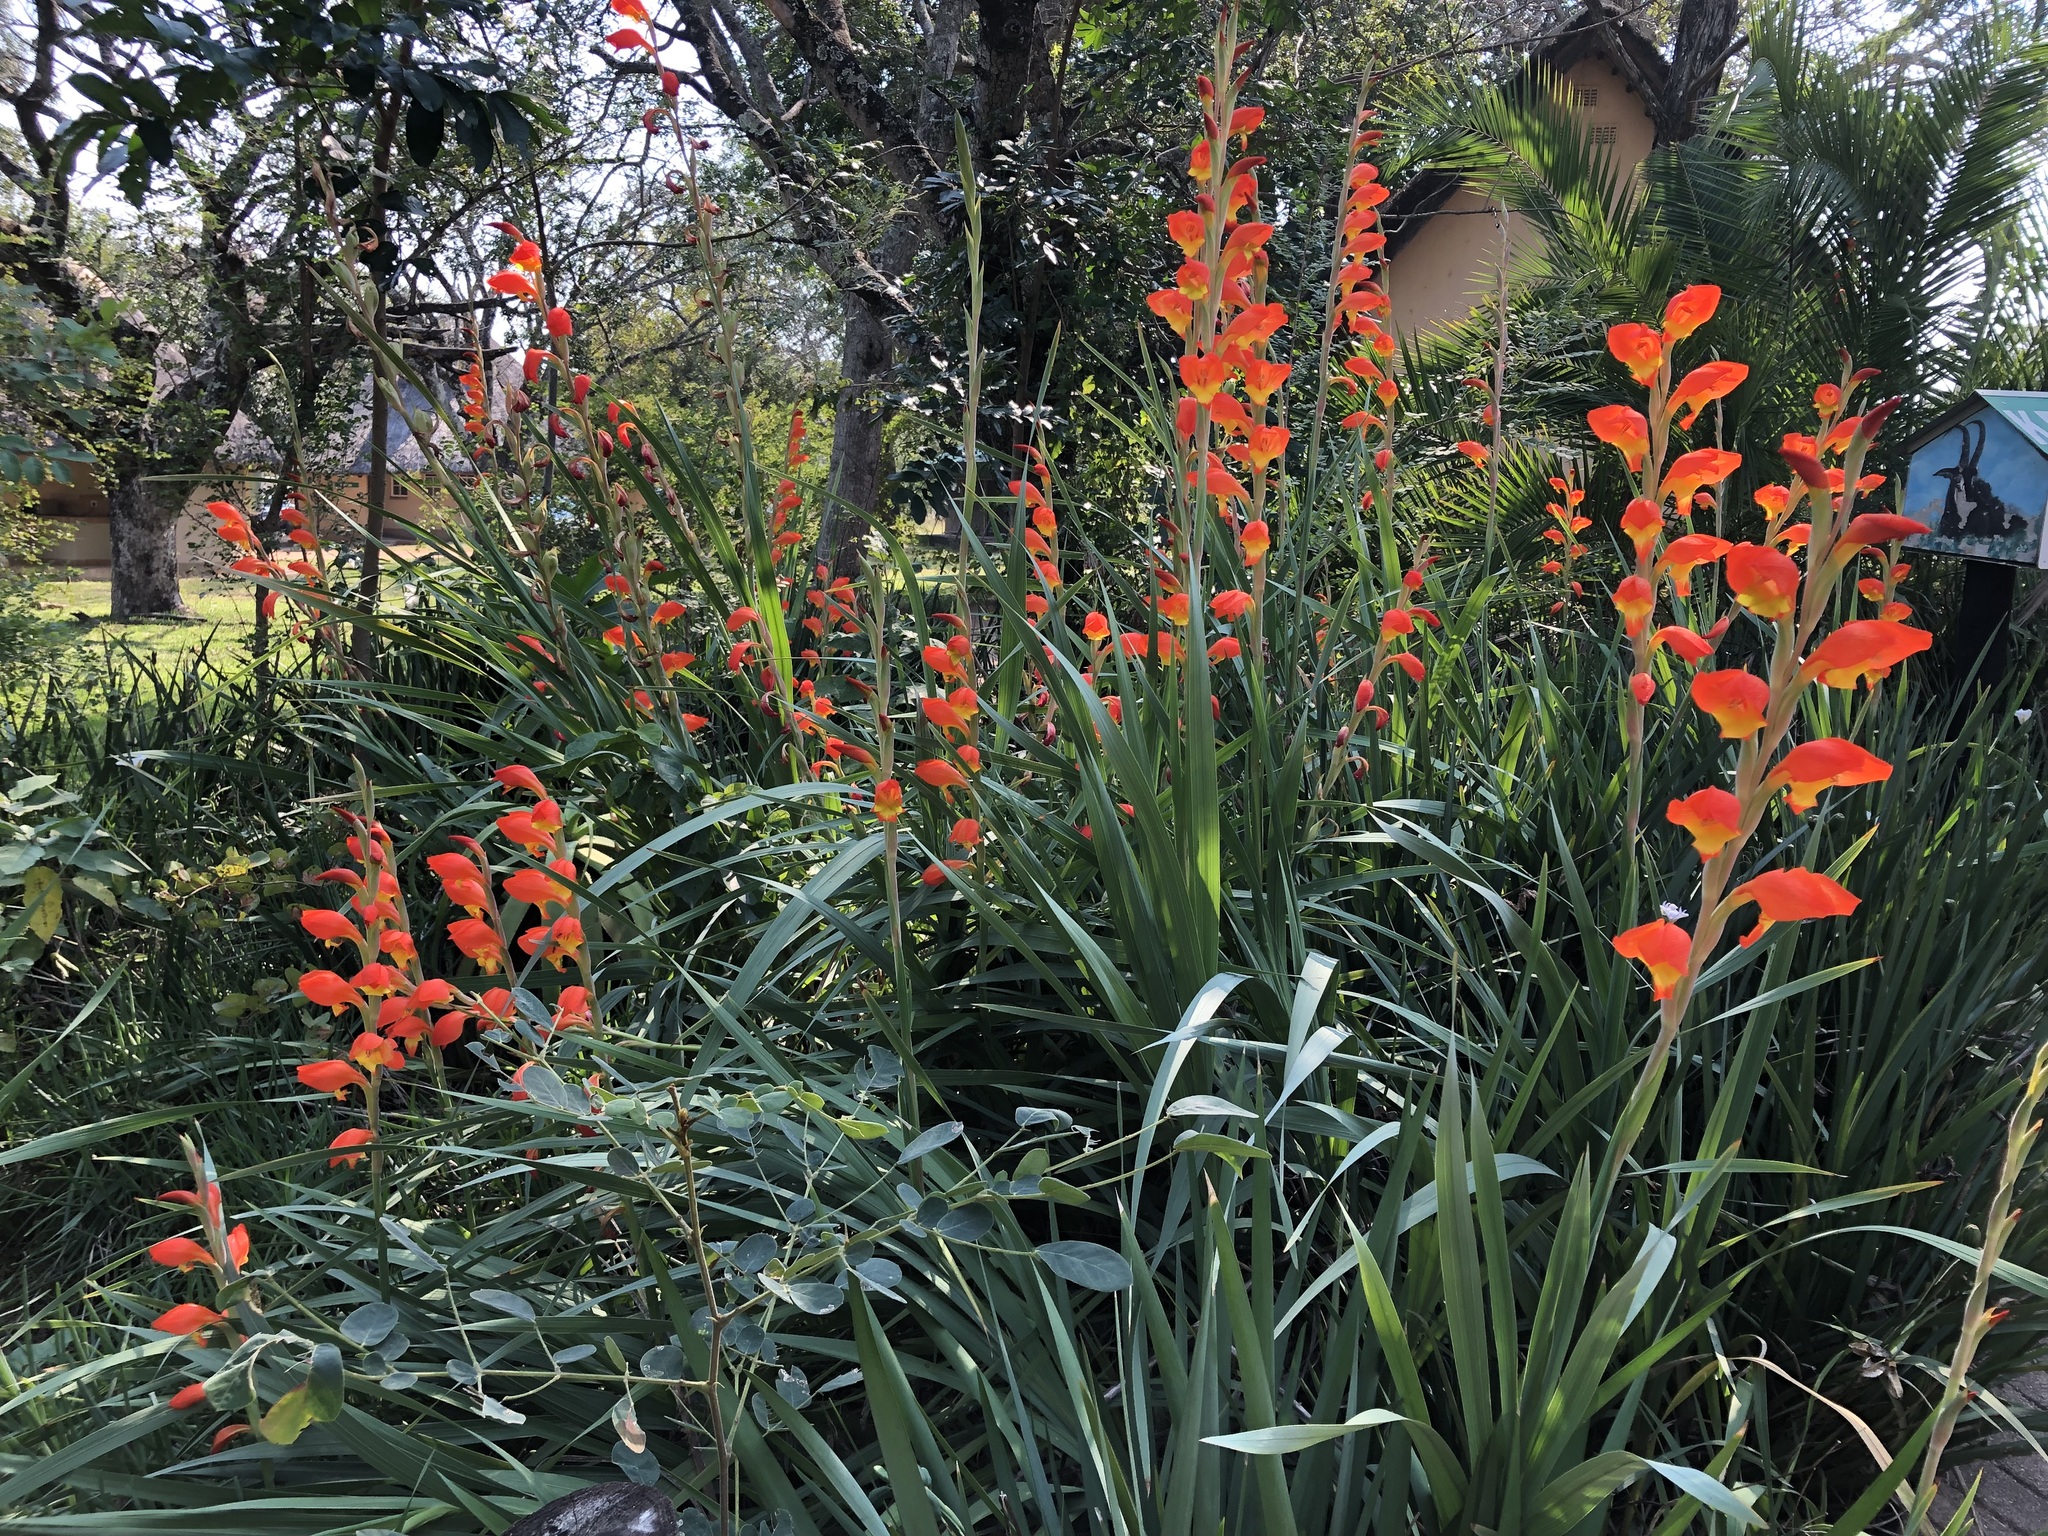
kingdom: Plantae
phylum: Tracheophyta
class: Liliopsida
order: Asparagales
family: Iridaceae
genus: Gladiolus
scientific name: Gladiolus dalenii
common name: Cornflag
